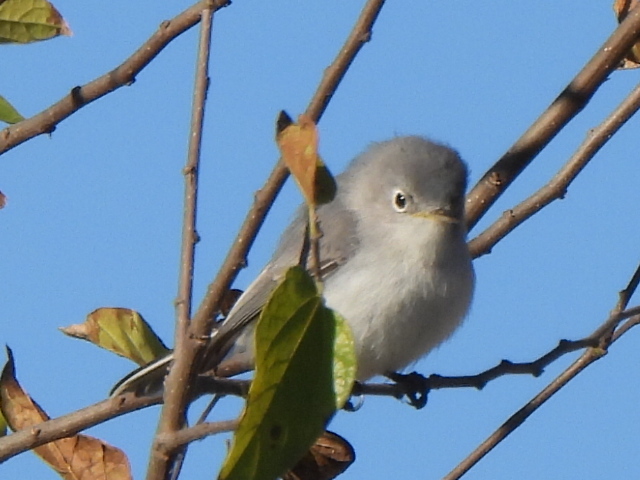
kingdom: Animalia
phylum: Chordata
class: Aves
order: Passeriformes
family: Polioptilidae
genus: Polioptila
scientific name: Polioptila caerulea
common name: Blue-gray gnatcatcher
